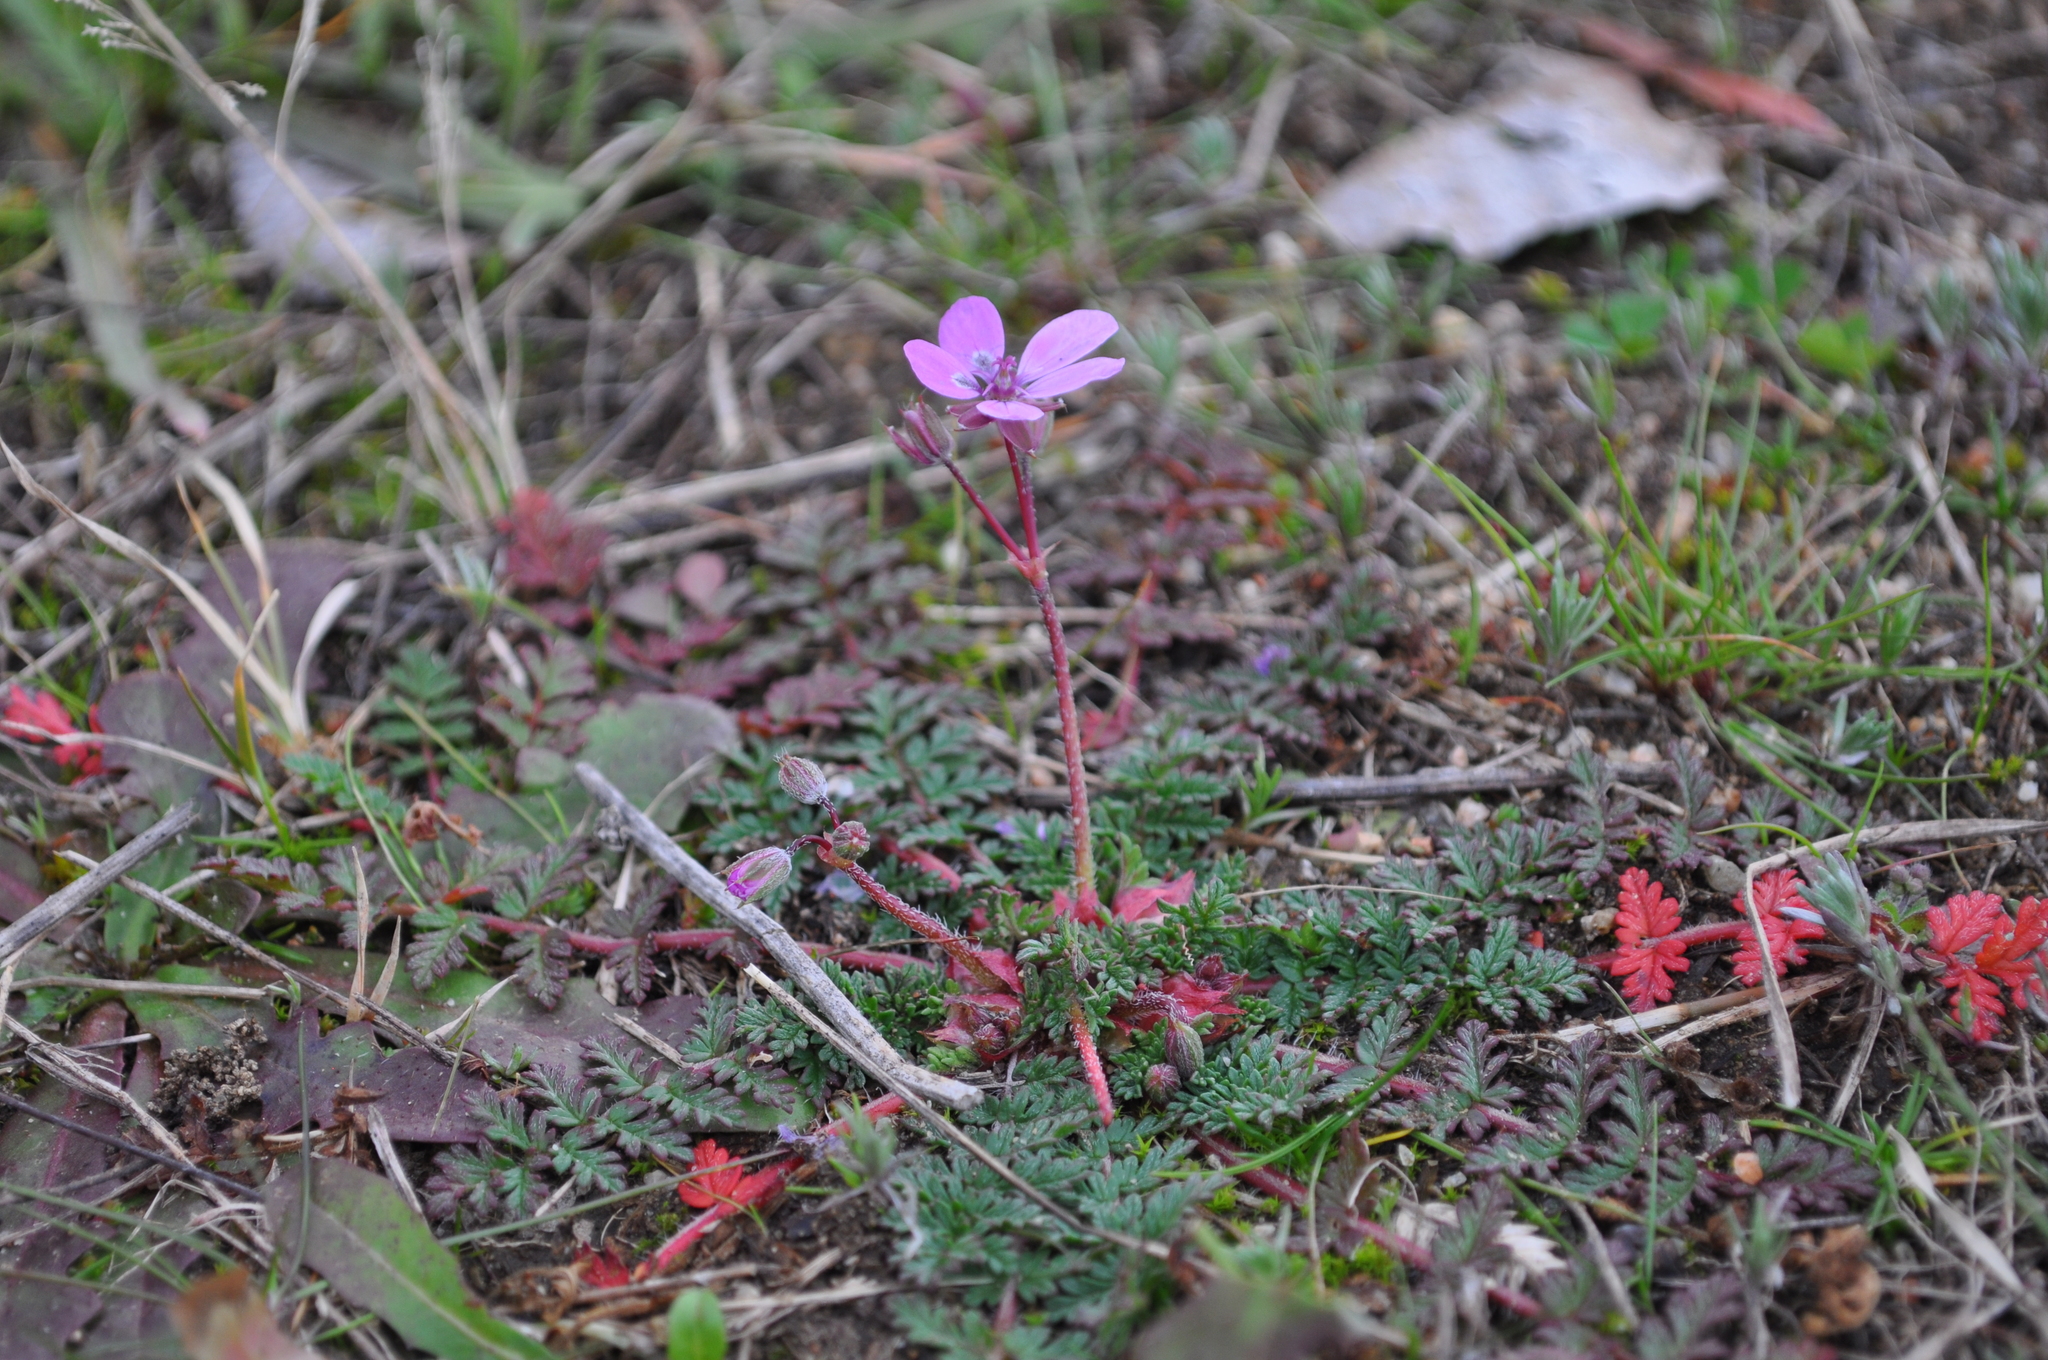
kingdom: Plantae
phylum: Tracheophyta
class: Magnoliopsida
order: Geraniales
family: Geraniaceae
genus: Erodium
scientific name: Erodium cicutarium
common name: Common stork's-bill
